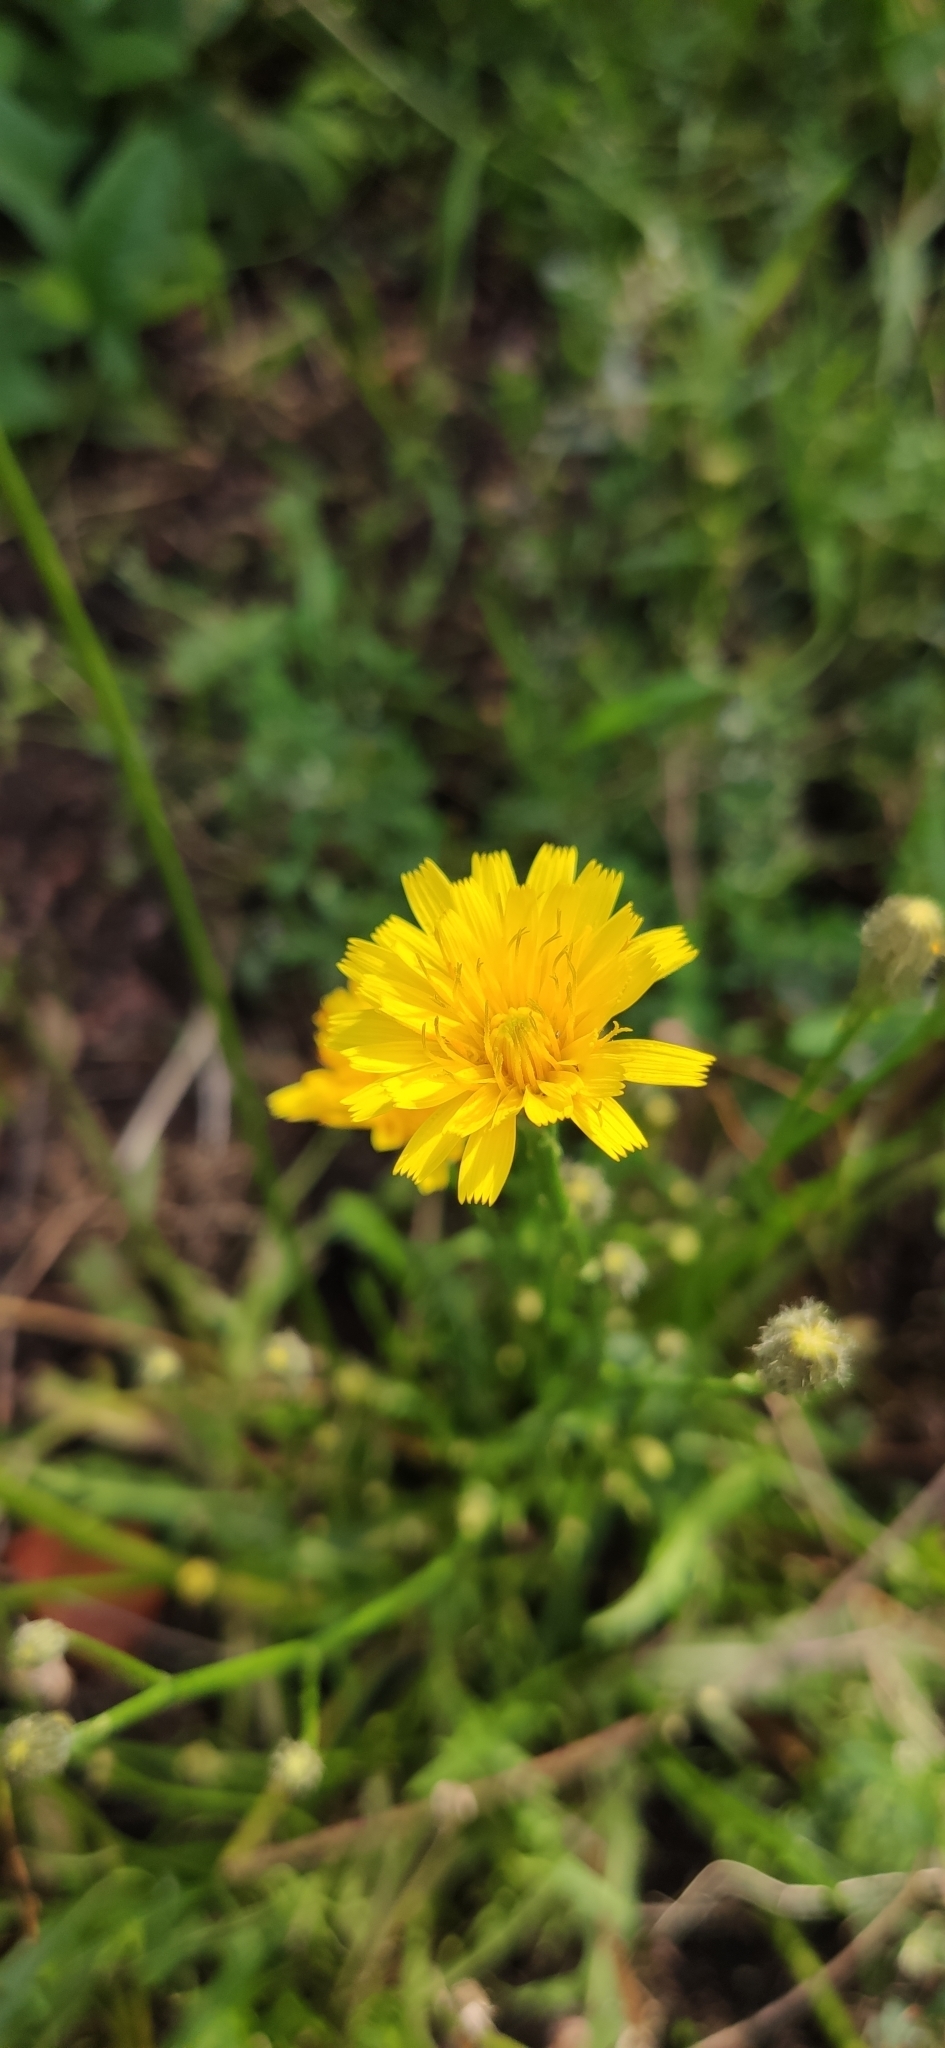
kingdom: Plantae
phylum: Tracheophyta
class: Magnoliopsida
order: Asterales
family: Asteraceae
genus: Scorzoneroides
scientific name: Scorzoneroides autumnalis
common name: Autumn hawkbit
